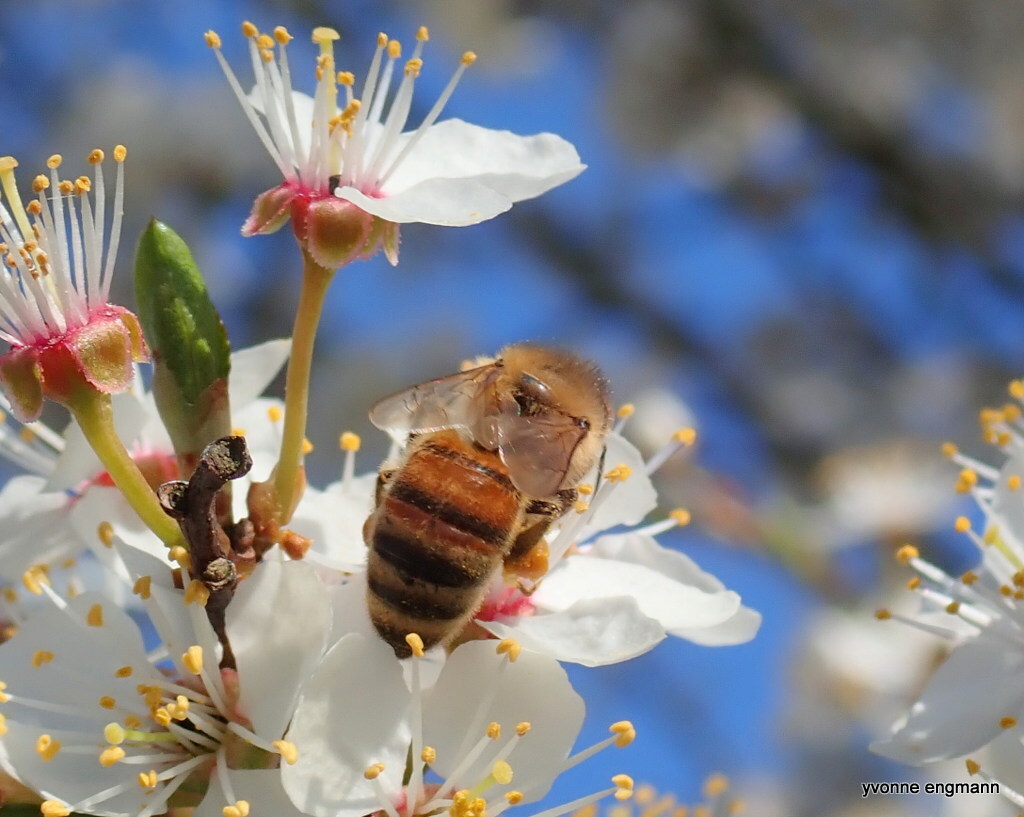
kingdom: Animalia
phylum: Arthropoda
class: Insecta
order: Hymenoptera
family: Apidae
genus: Apis
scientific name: Apis mellifera
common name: Honey bee
